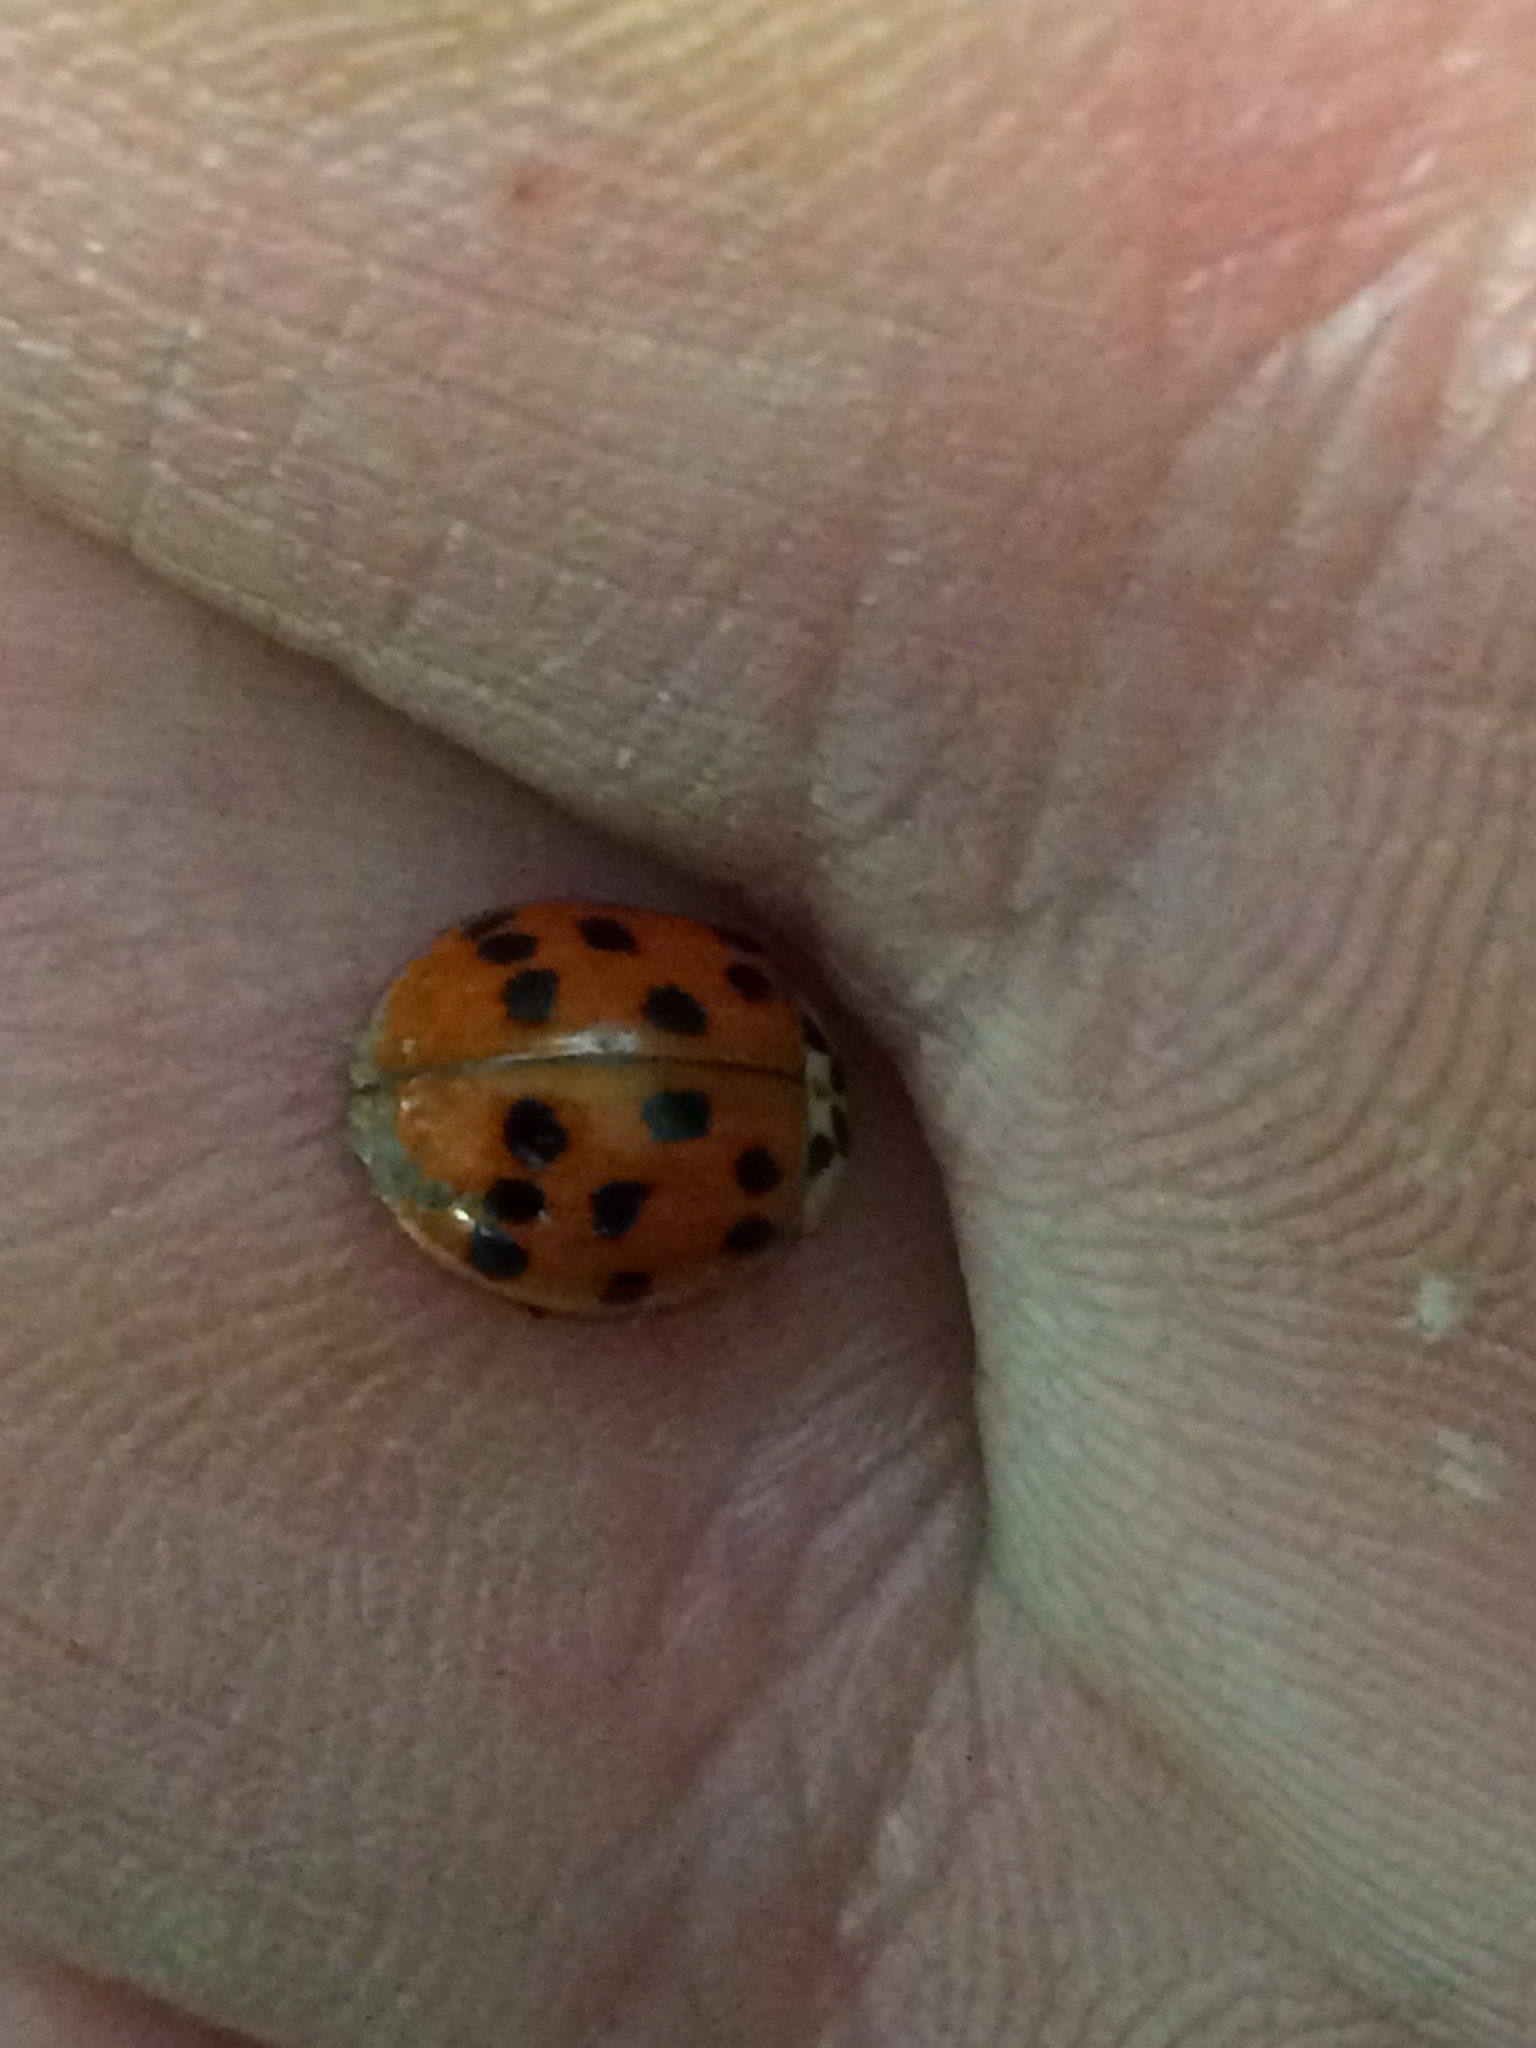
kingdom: Animalia
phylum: Arthropoda
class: Insecta
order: Coleoptera
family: Coccinellidae
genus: Harmonia
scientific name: Harmonia axyridis
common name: Harlequin ladybird
